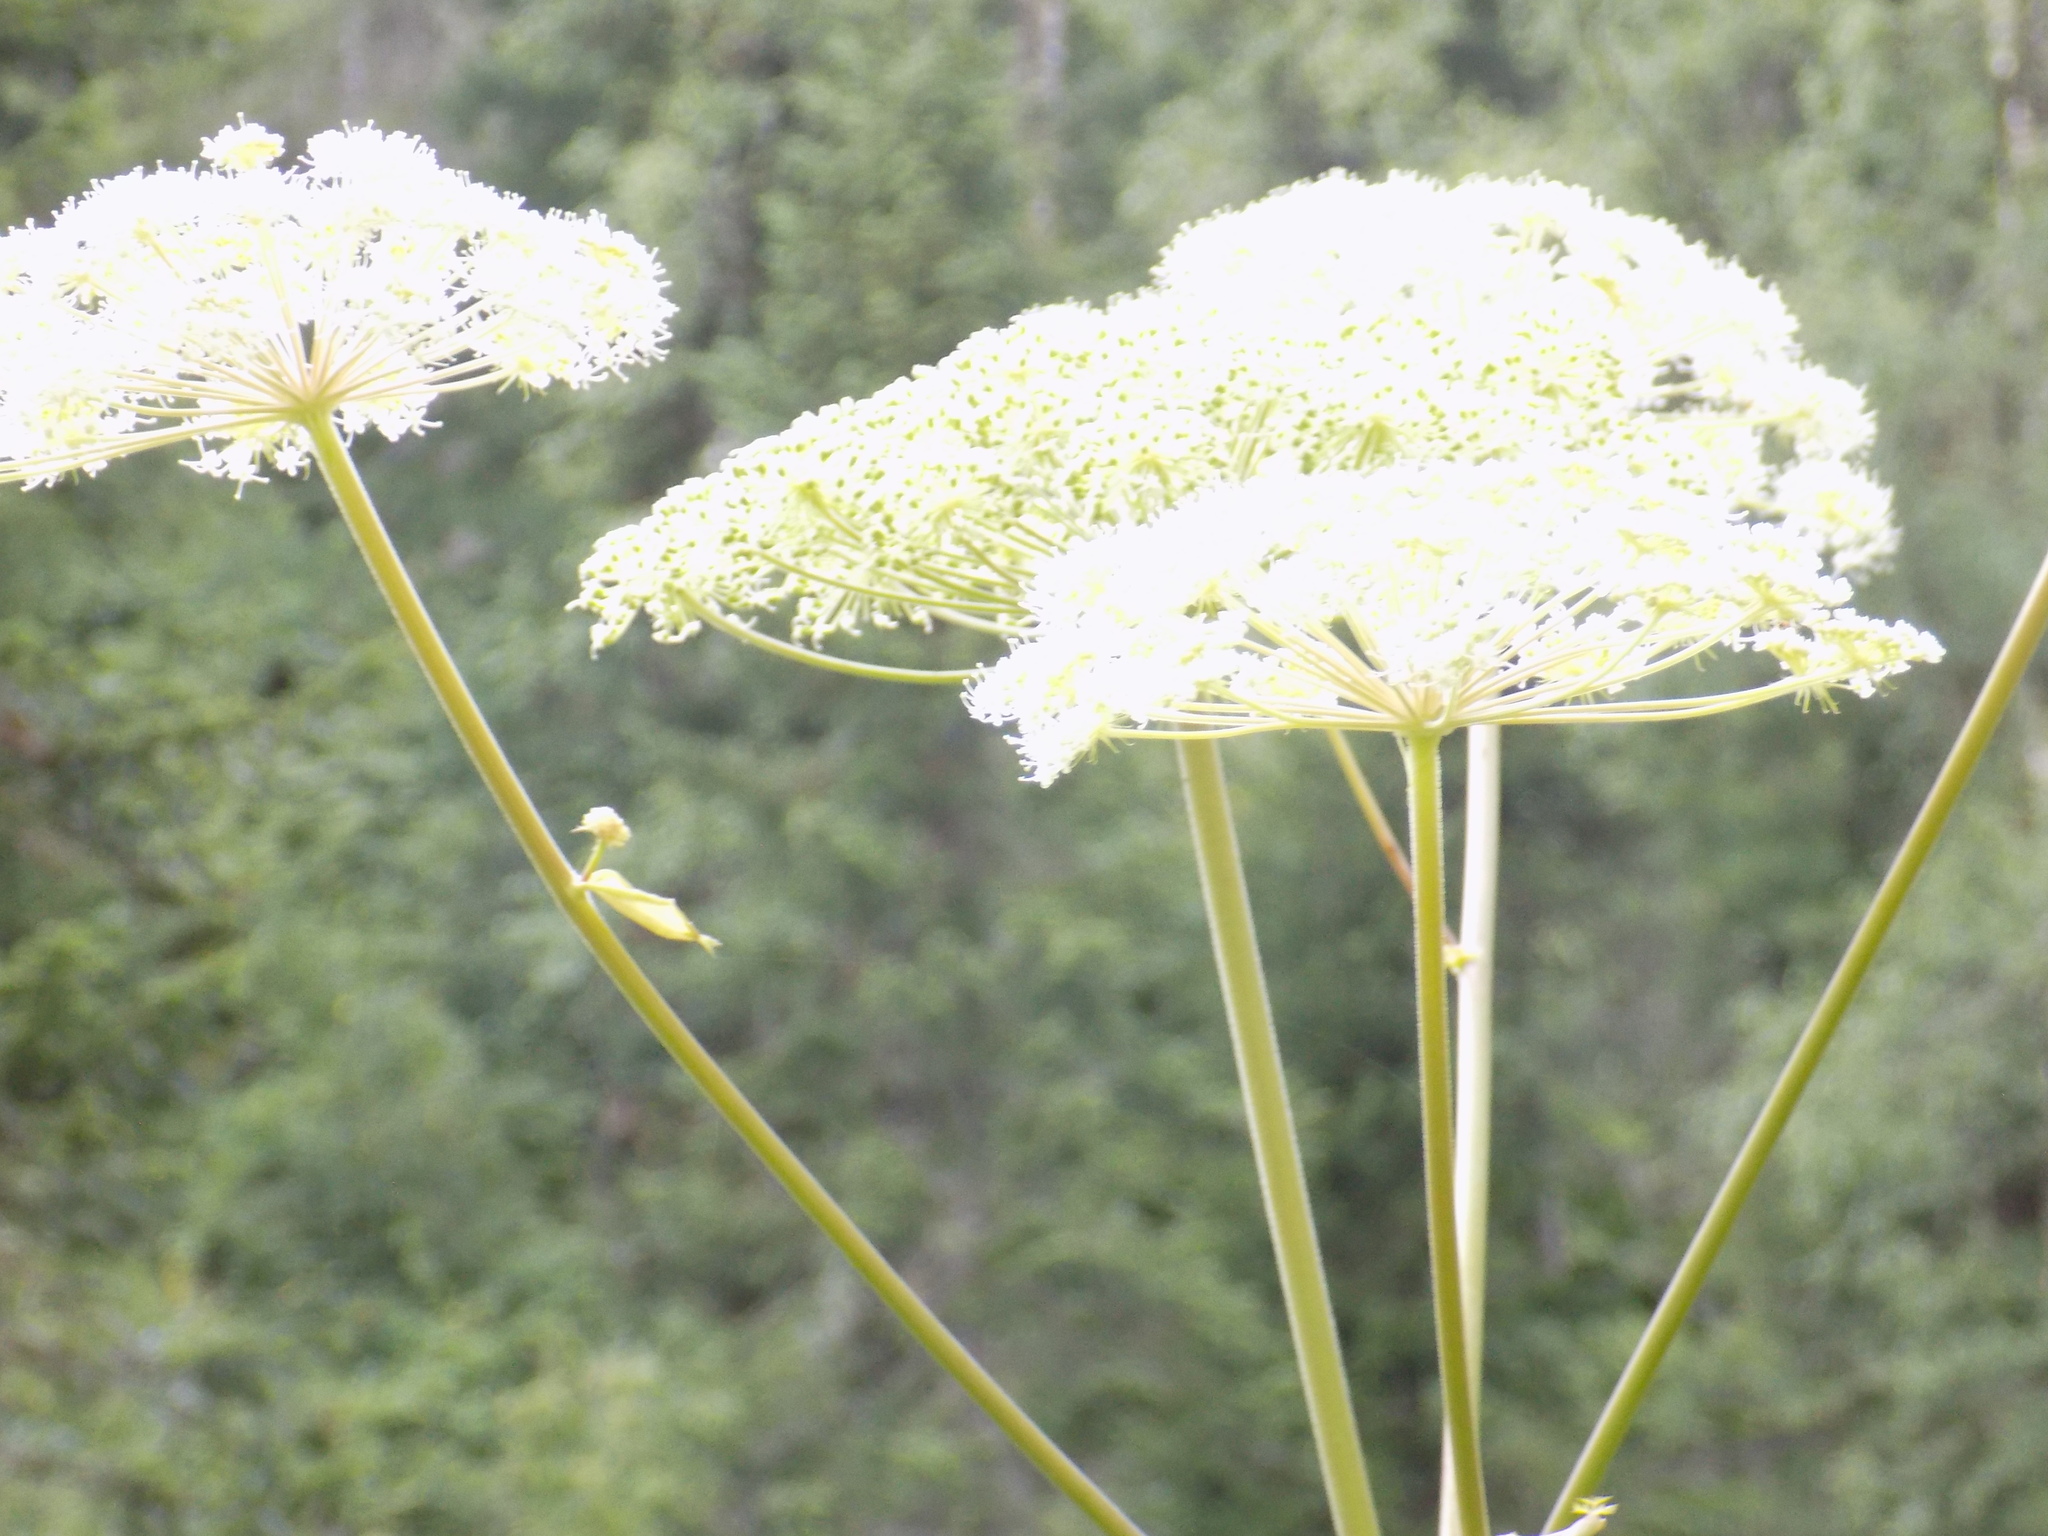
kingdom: Plantae
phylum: Tracheophyta
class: Magnoliopsida
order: Apiales
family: Apiaceae
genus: Angelica
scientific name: Angelica sylvestris
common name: Wild angelica
